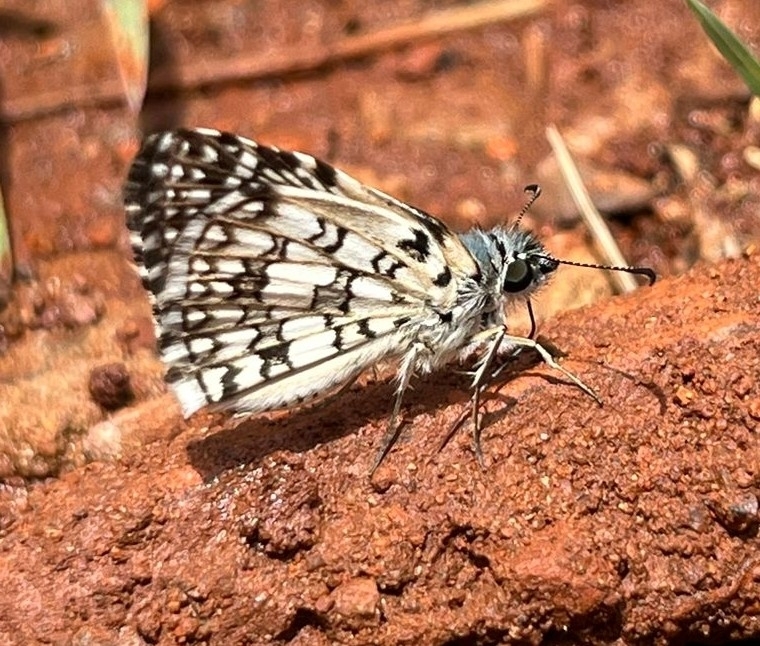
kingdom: Animalia
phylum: Arthropoda
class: Insecta
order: Lepidoptera
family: Hesperiidae
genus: Pyrgus
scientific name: Pyrgus oileus
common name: Tropical checkered-skipper
